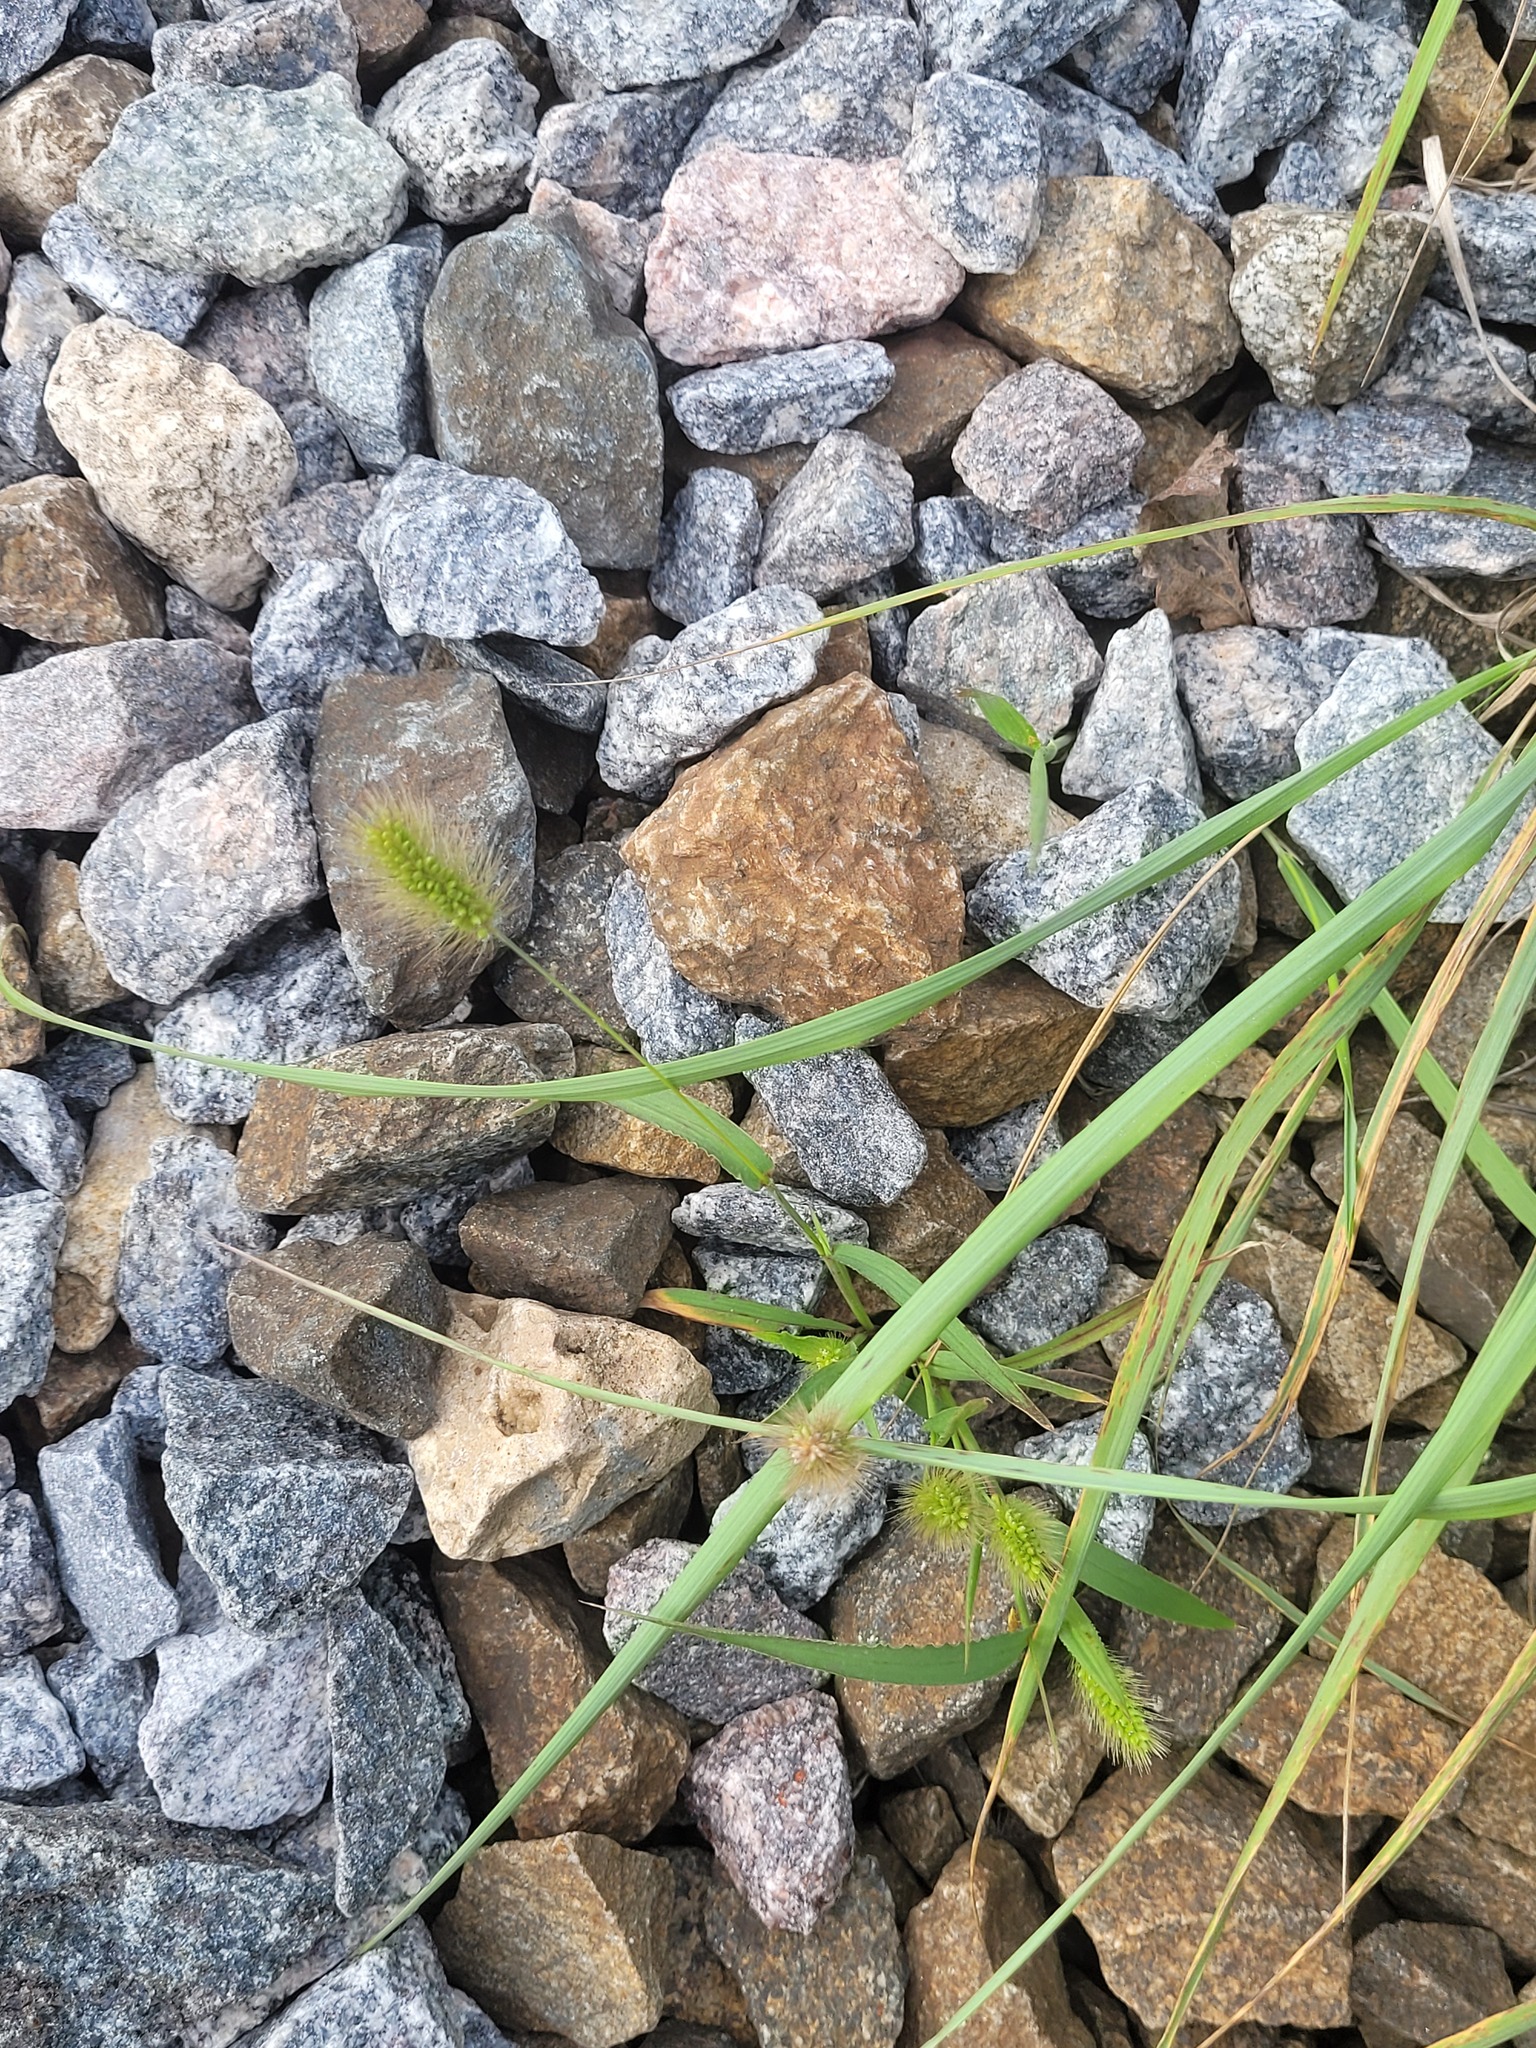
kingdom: Plantae
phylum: Tracheophyta
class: Liliopsida
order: Poales
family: Poaceae
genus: Setaria
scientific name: Setaria viridis
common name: Green bristlegrass
